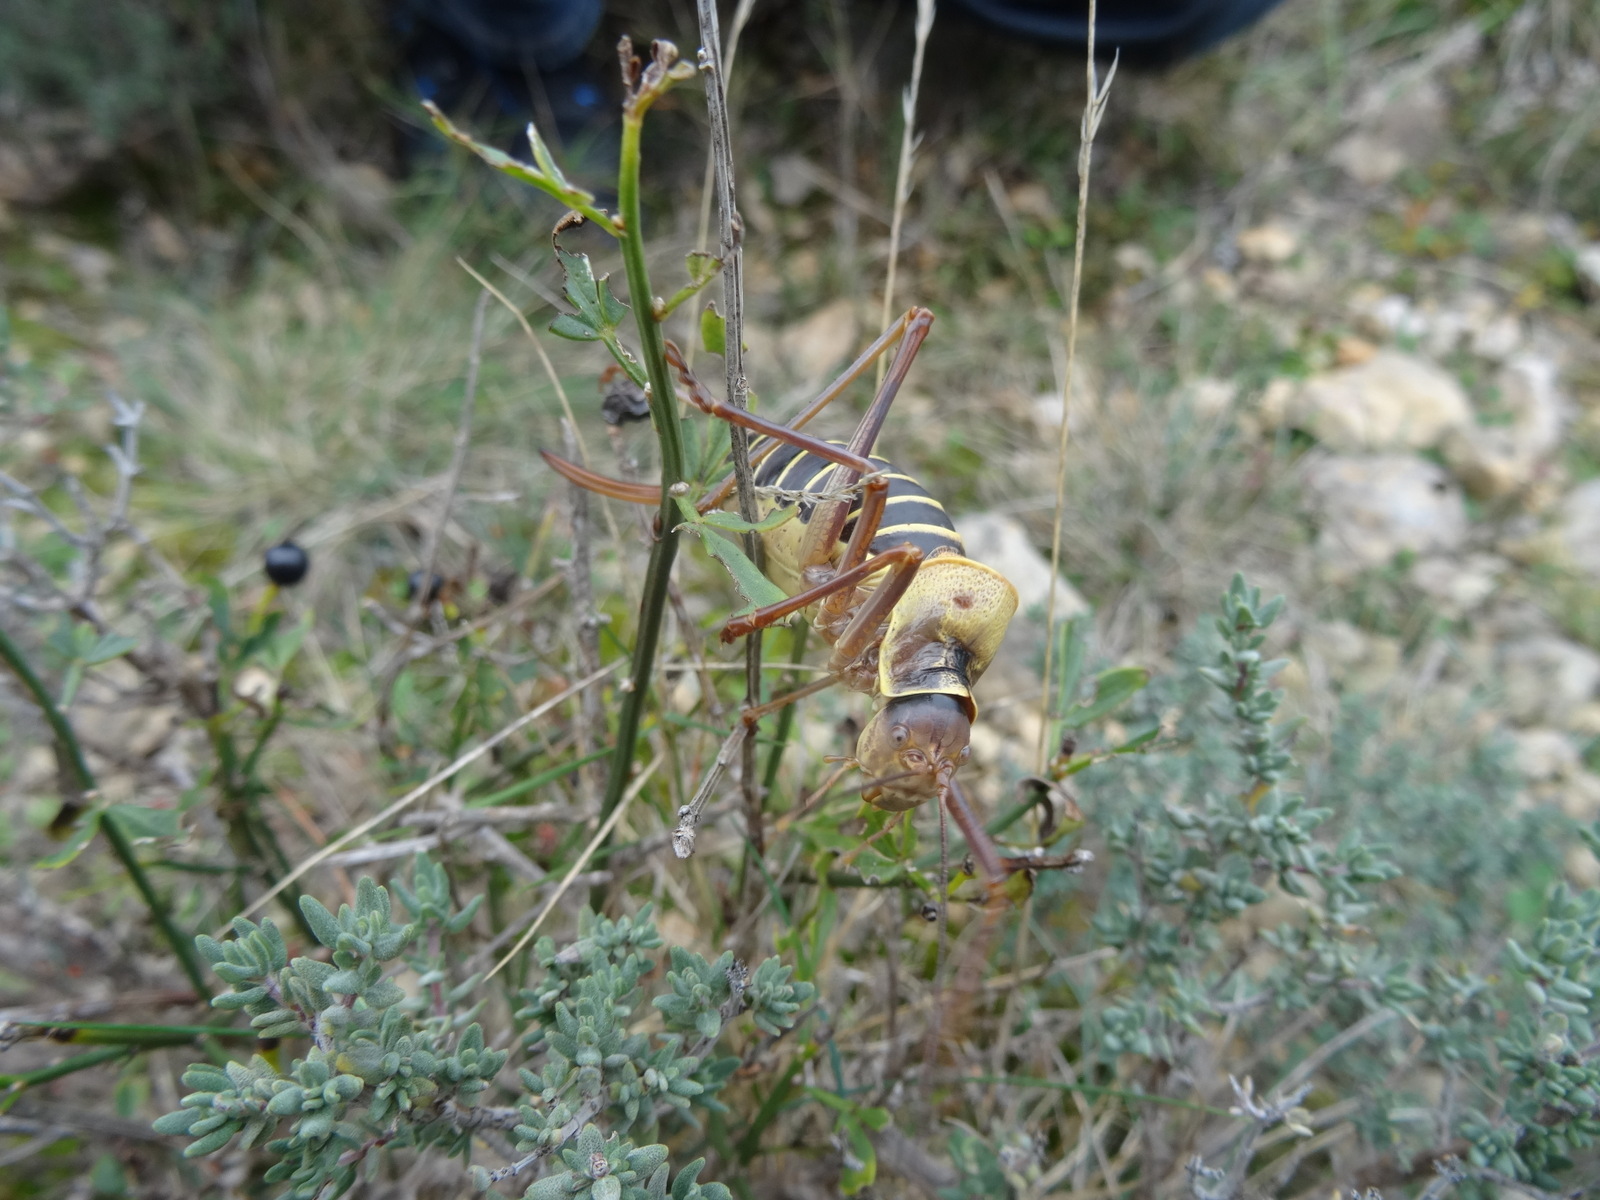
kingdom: Animalia
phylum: Arthropoda
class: Insecta
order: Orthoptera
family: Tettigoniidae
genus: Ephippiger
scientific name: Ephippiger diurnus
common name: Western saddle bush-cricket
